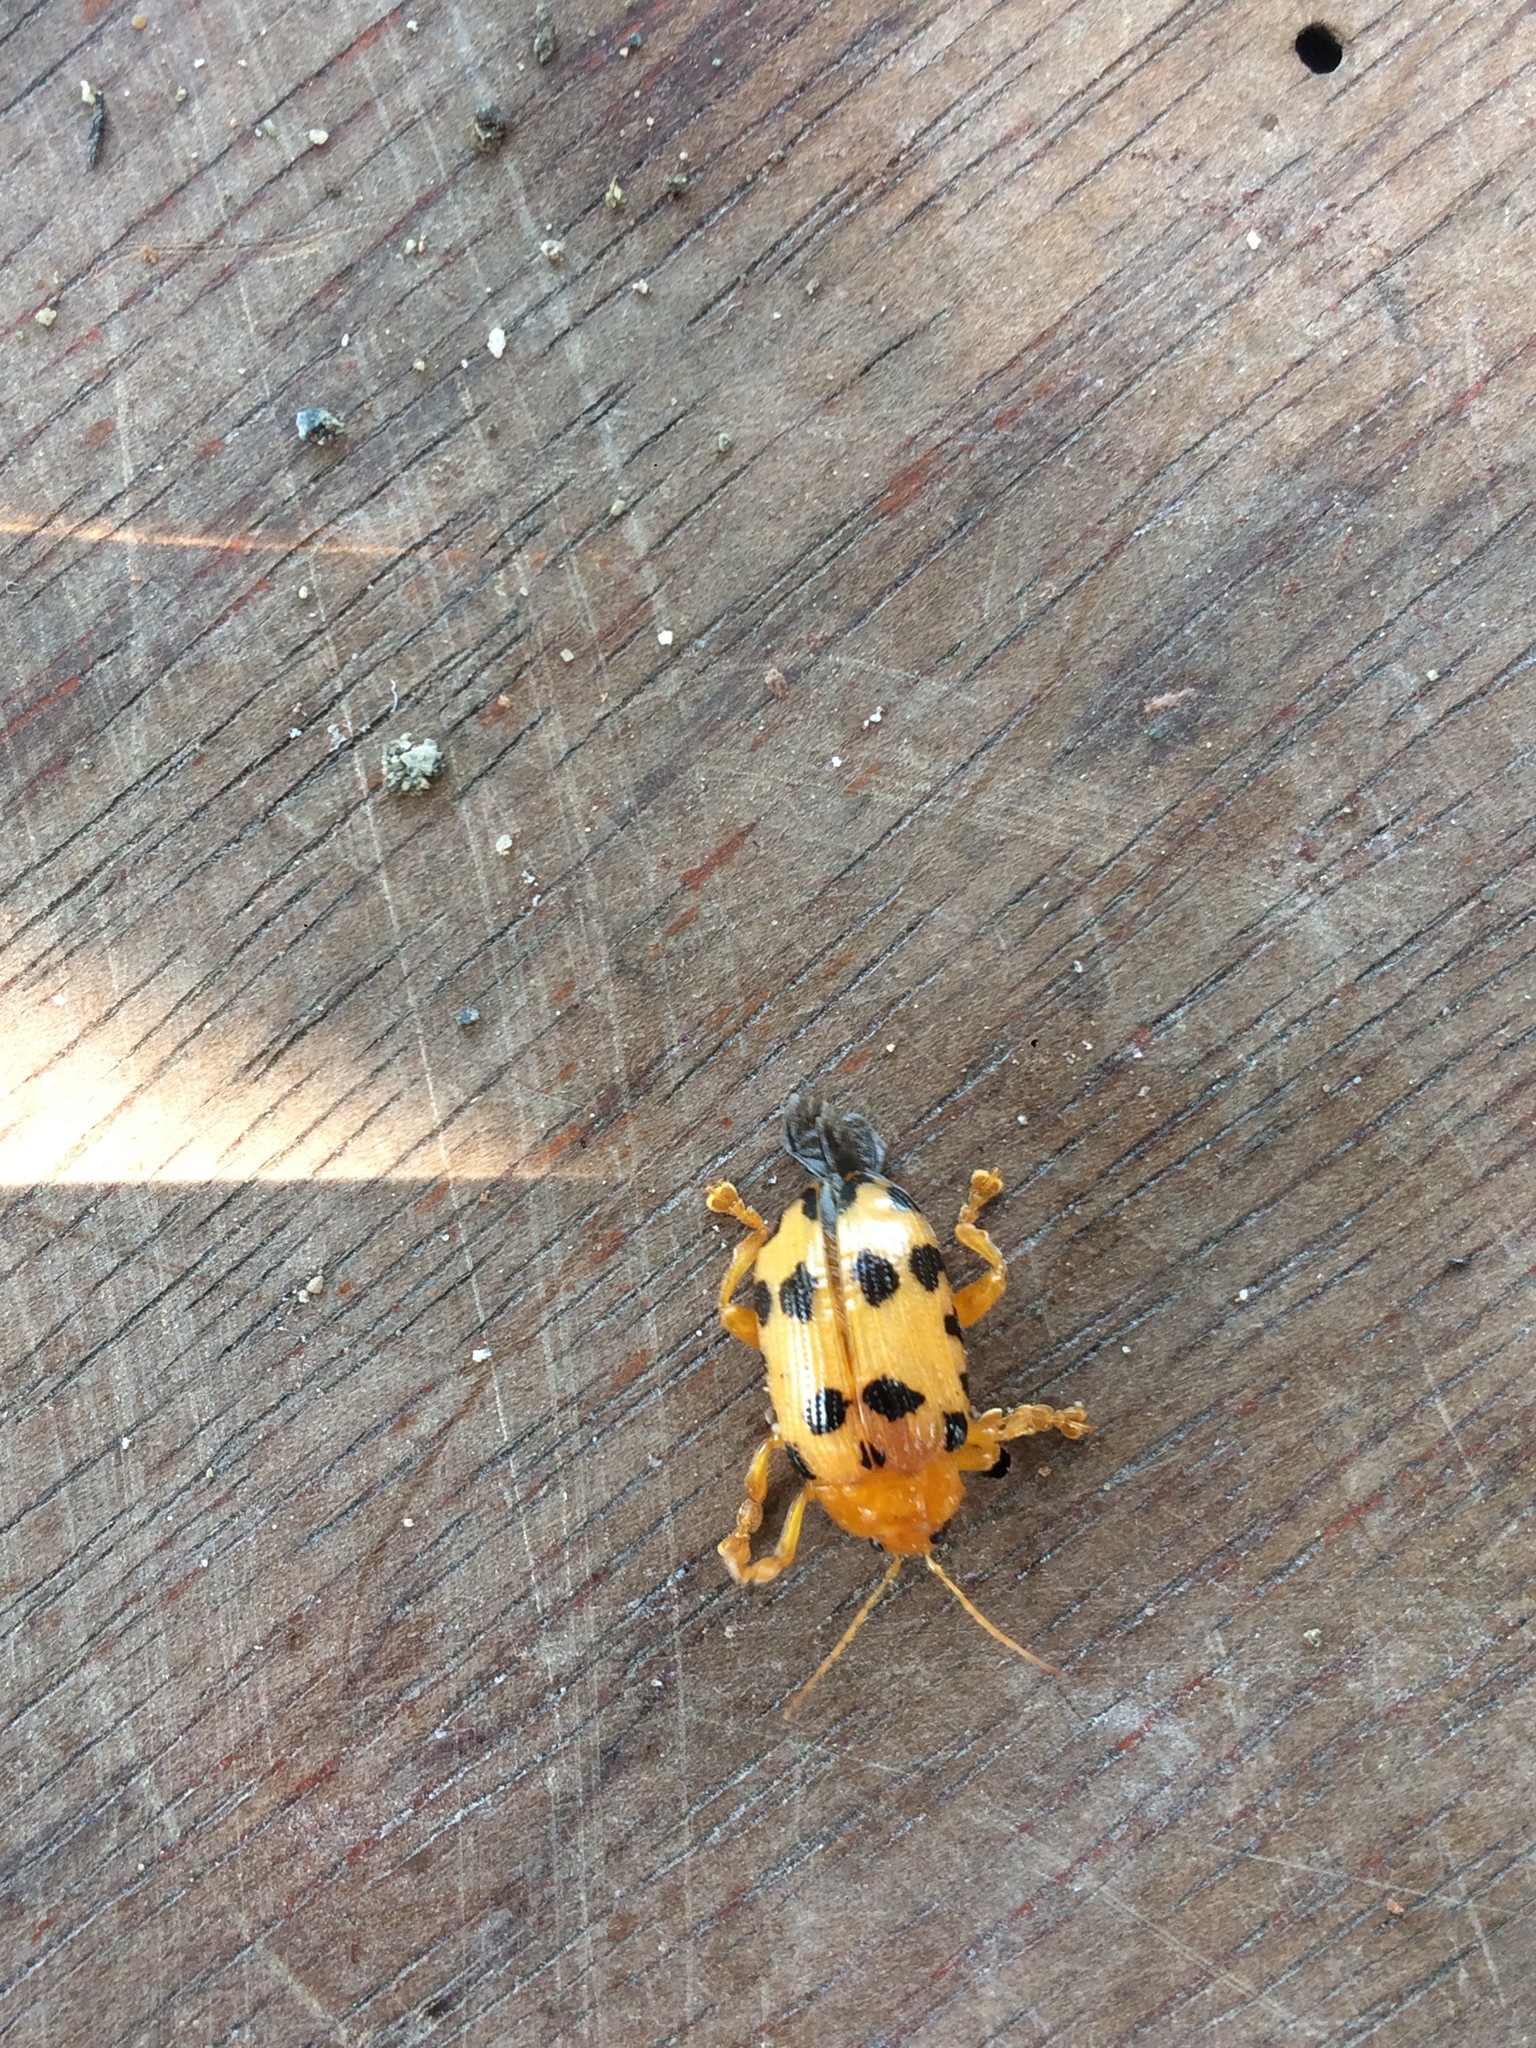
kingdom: Animalia
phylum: Arthropoda
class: Insecta
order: Coleoptera
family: Chrysomelidae
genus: Podontia
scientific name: Podontia
